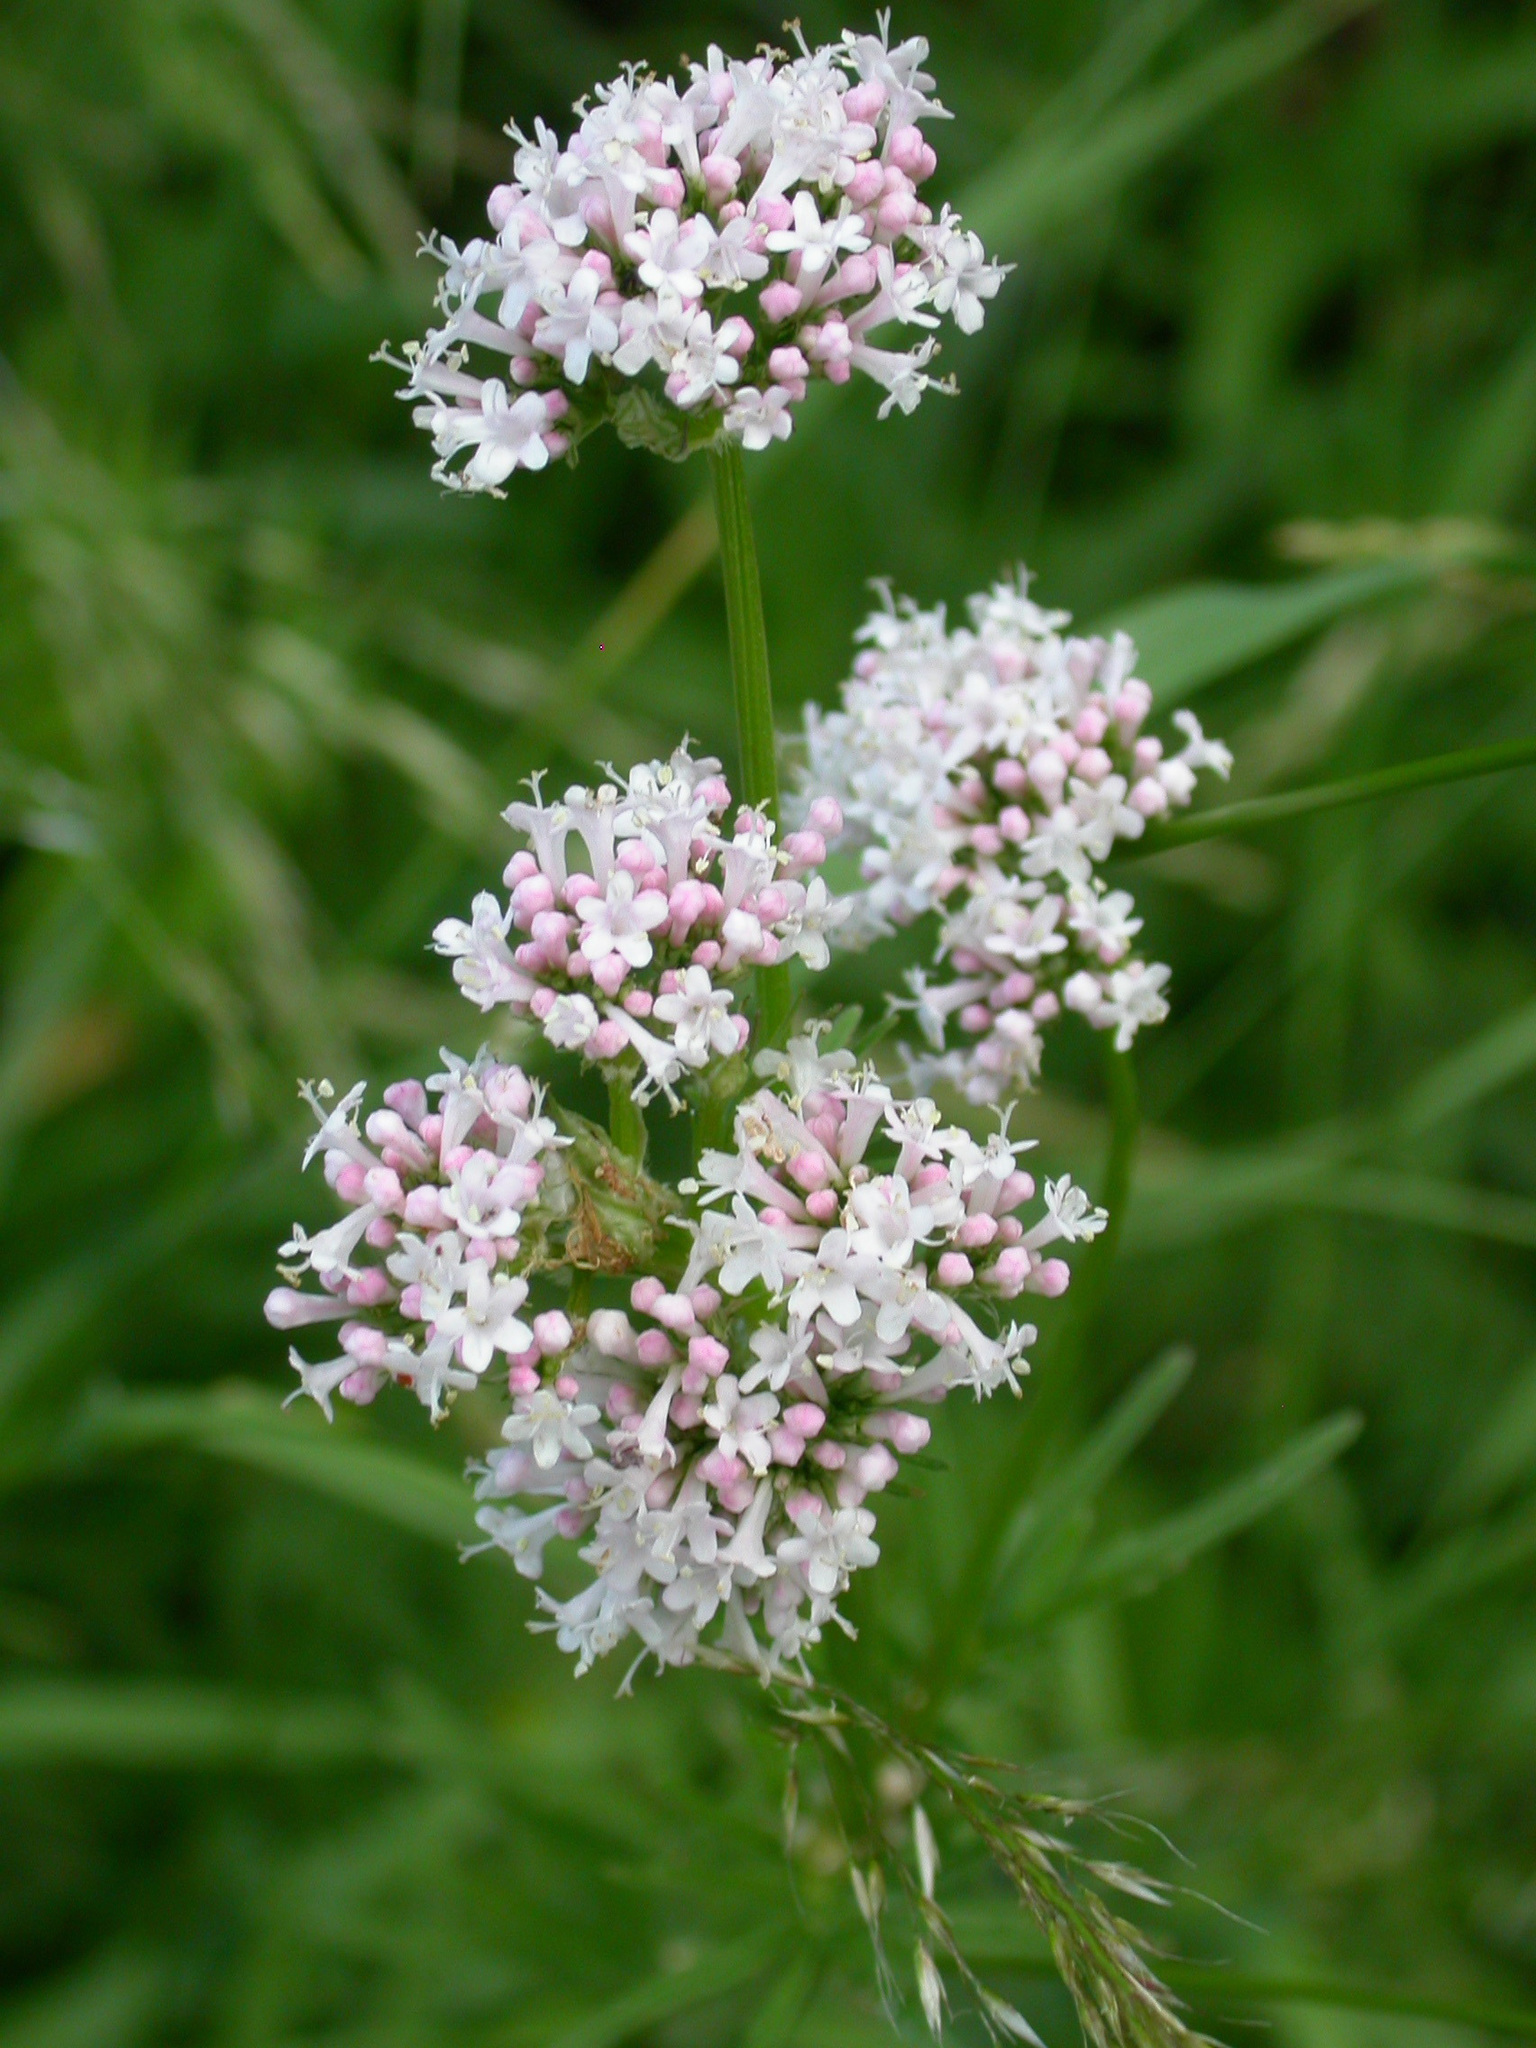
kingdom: Plantae
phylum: Tracheophyta
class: Magnoliopsida
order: Dipsacales
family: Caprifoliaceae
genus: Valeriana
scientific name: Valeriana officinalis
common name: Common valerian
